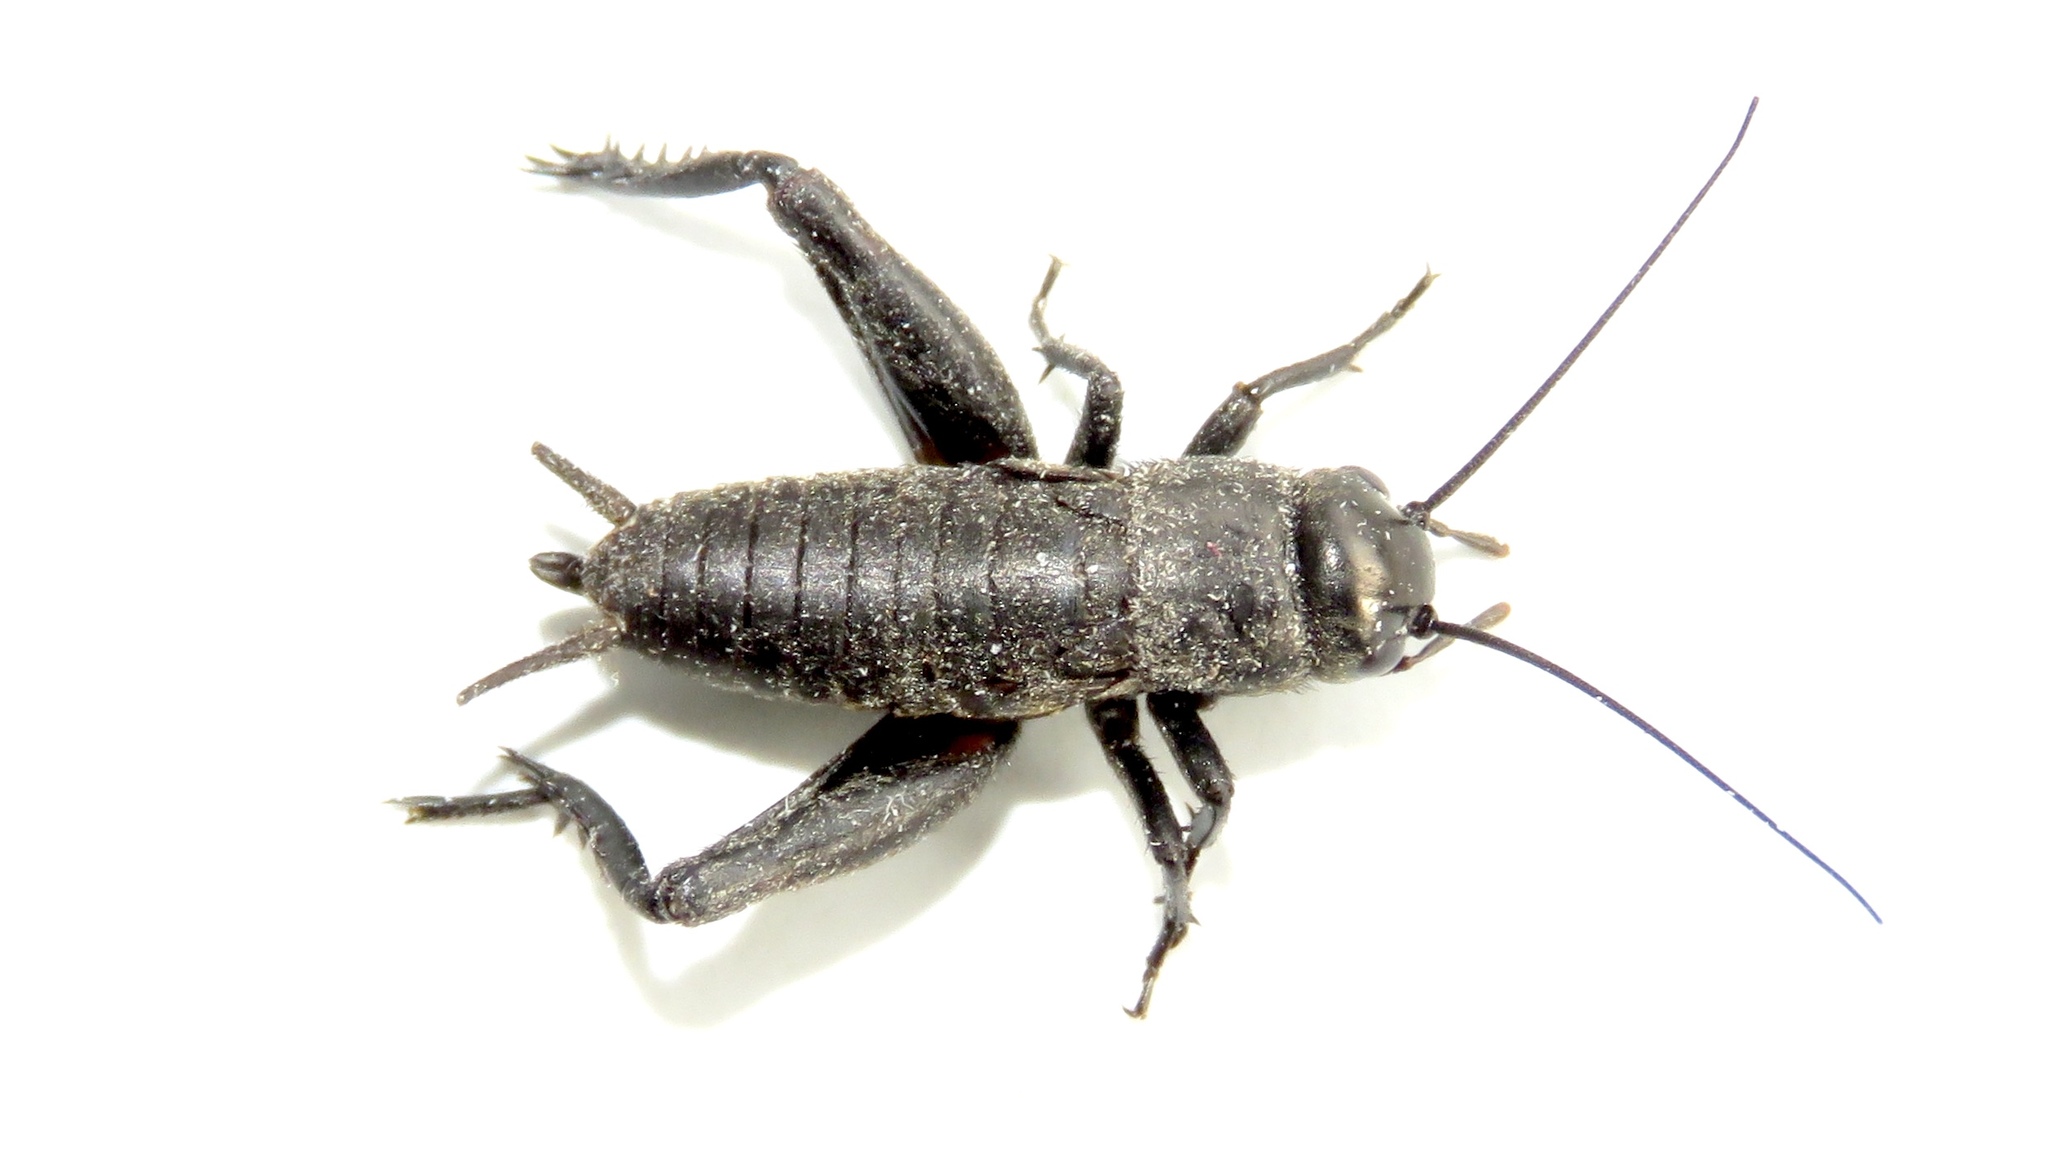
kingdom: Animalia
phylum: Arthropoda
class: Insecta
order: Orthoptera
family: Gryllidae
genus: Gryllus
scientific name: Gryllus veletis
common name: Spring field cricket
